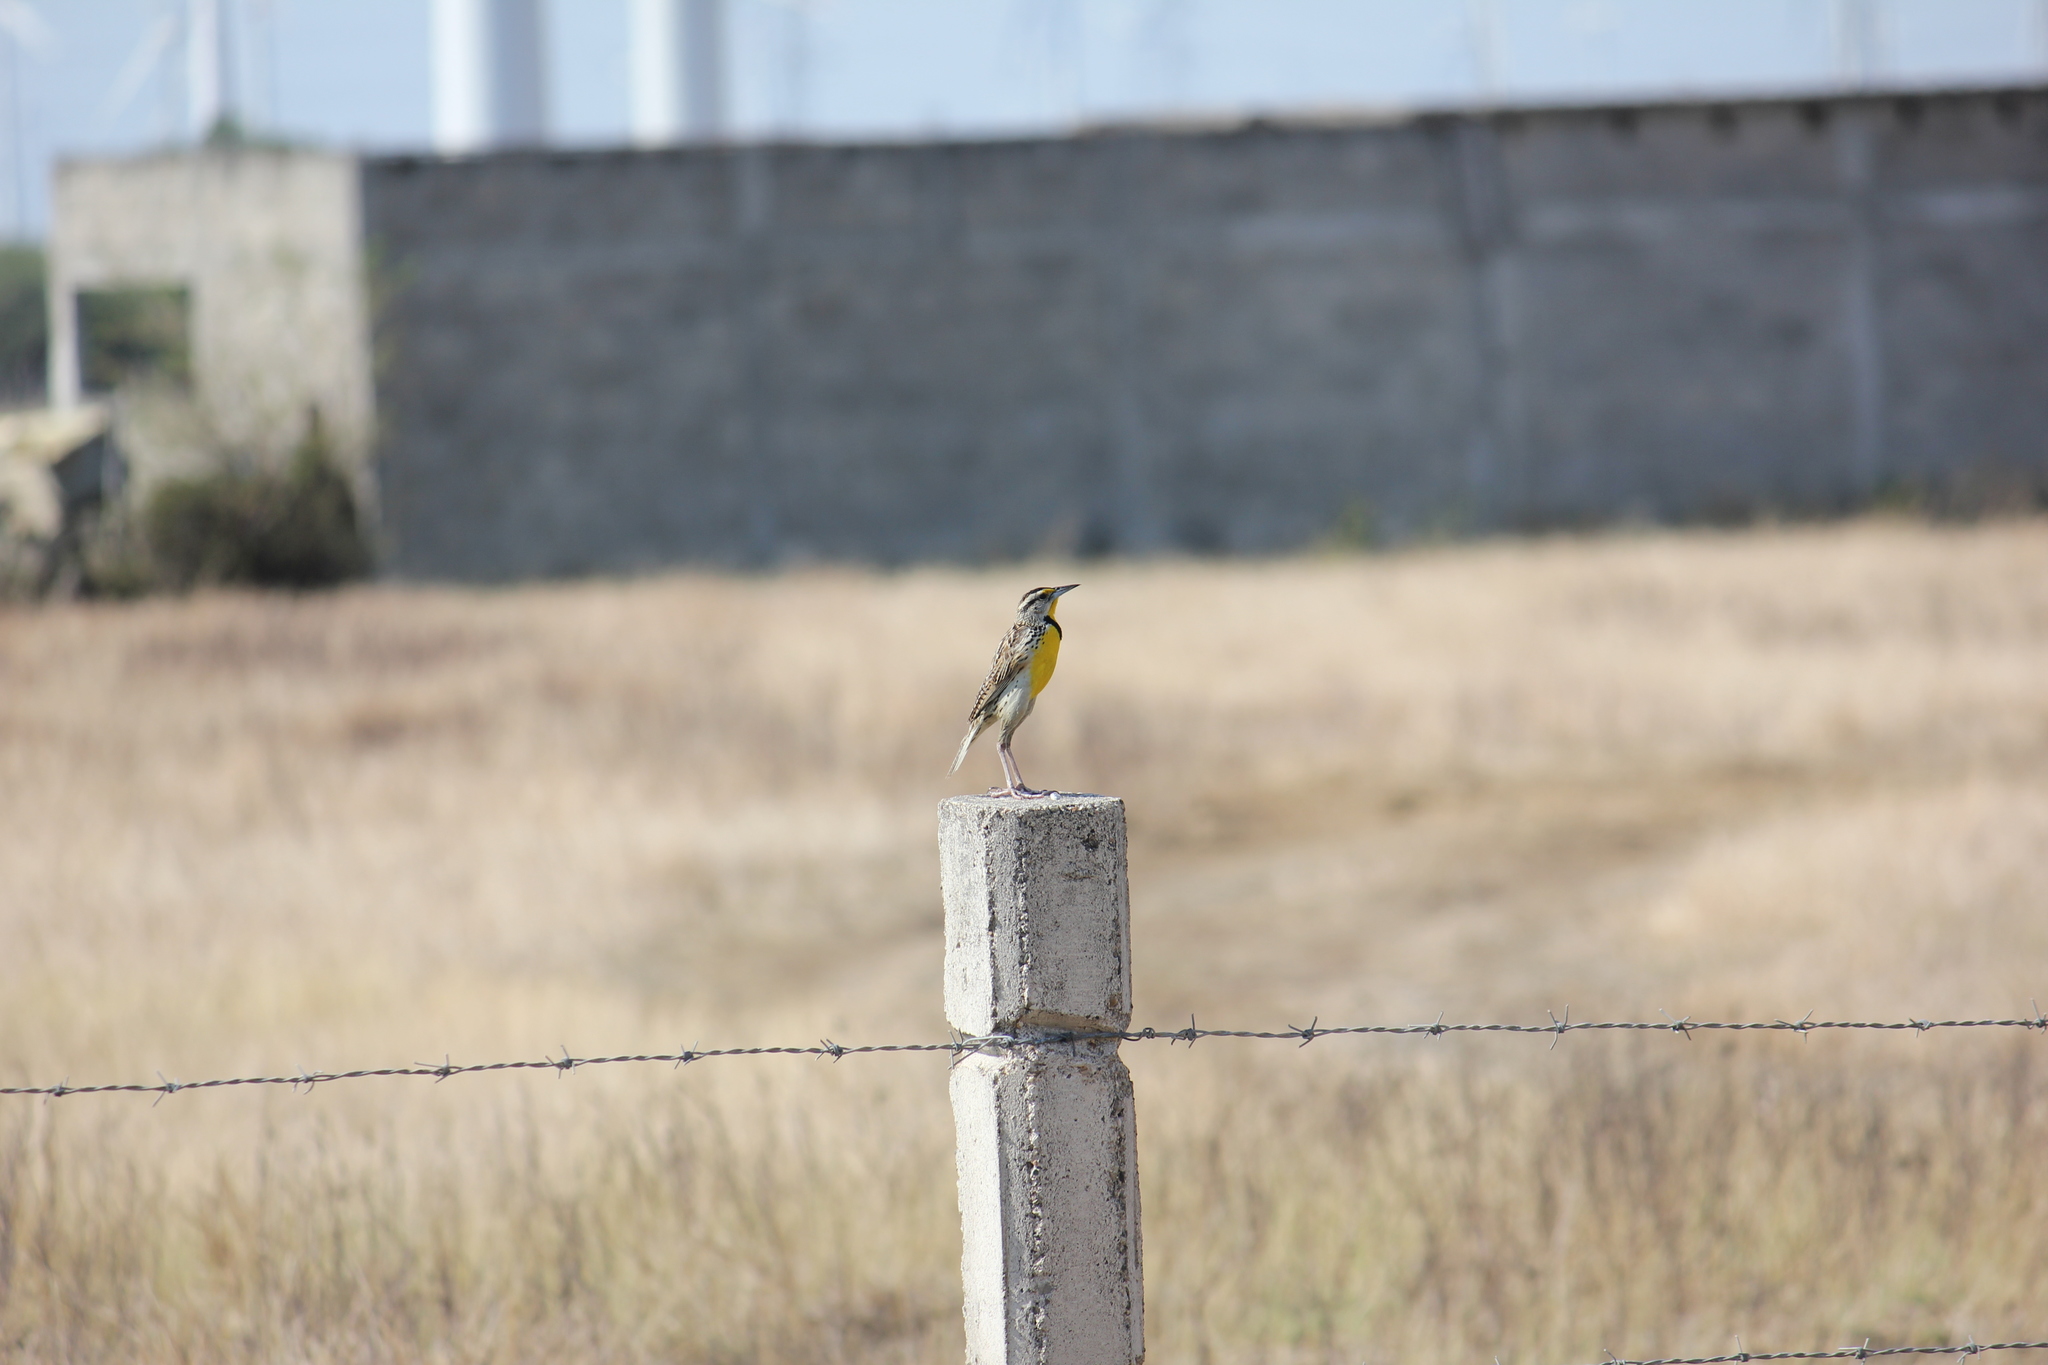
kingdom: Animalia
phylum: Chordata
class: Aves
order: Passeriformes
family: Icteridae
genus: Sturnella
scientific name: Sturnella magna
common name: Eastern meadowlark
